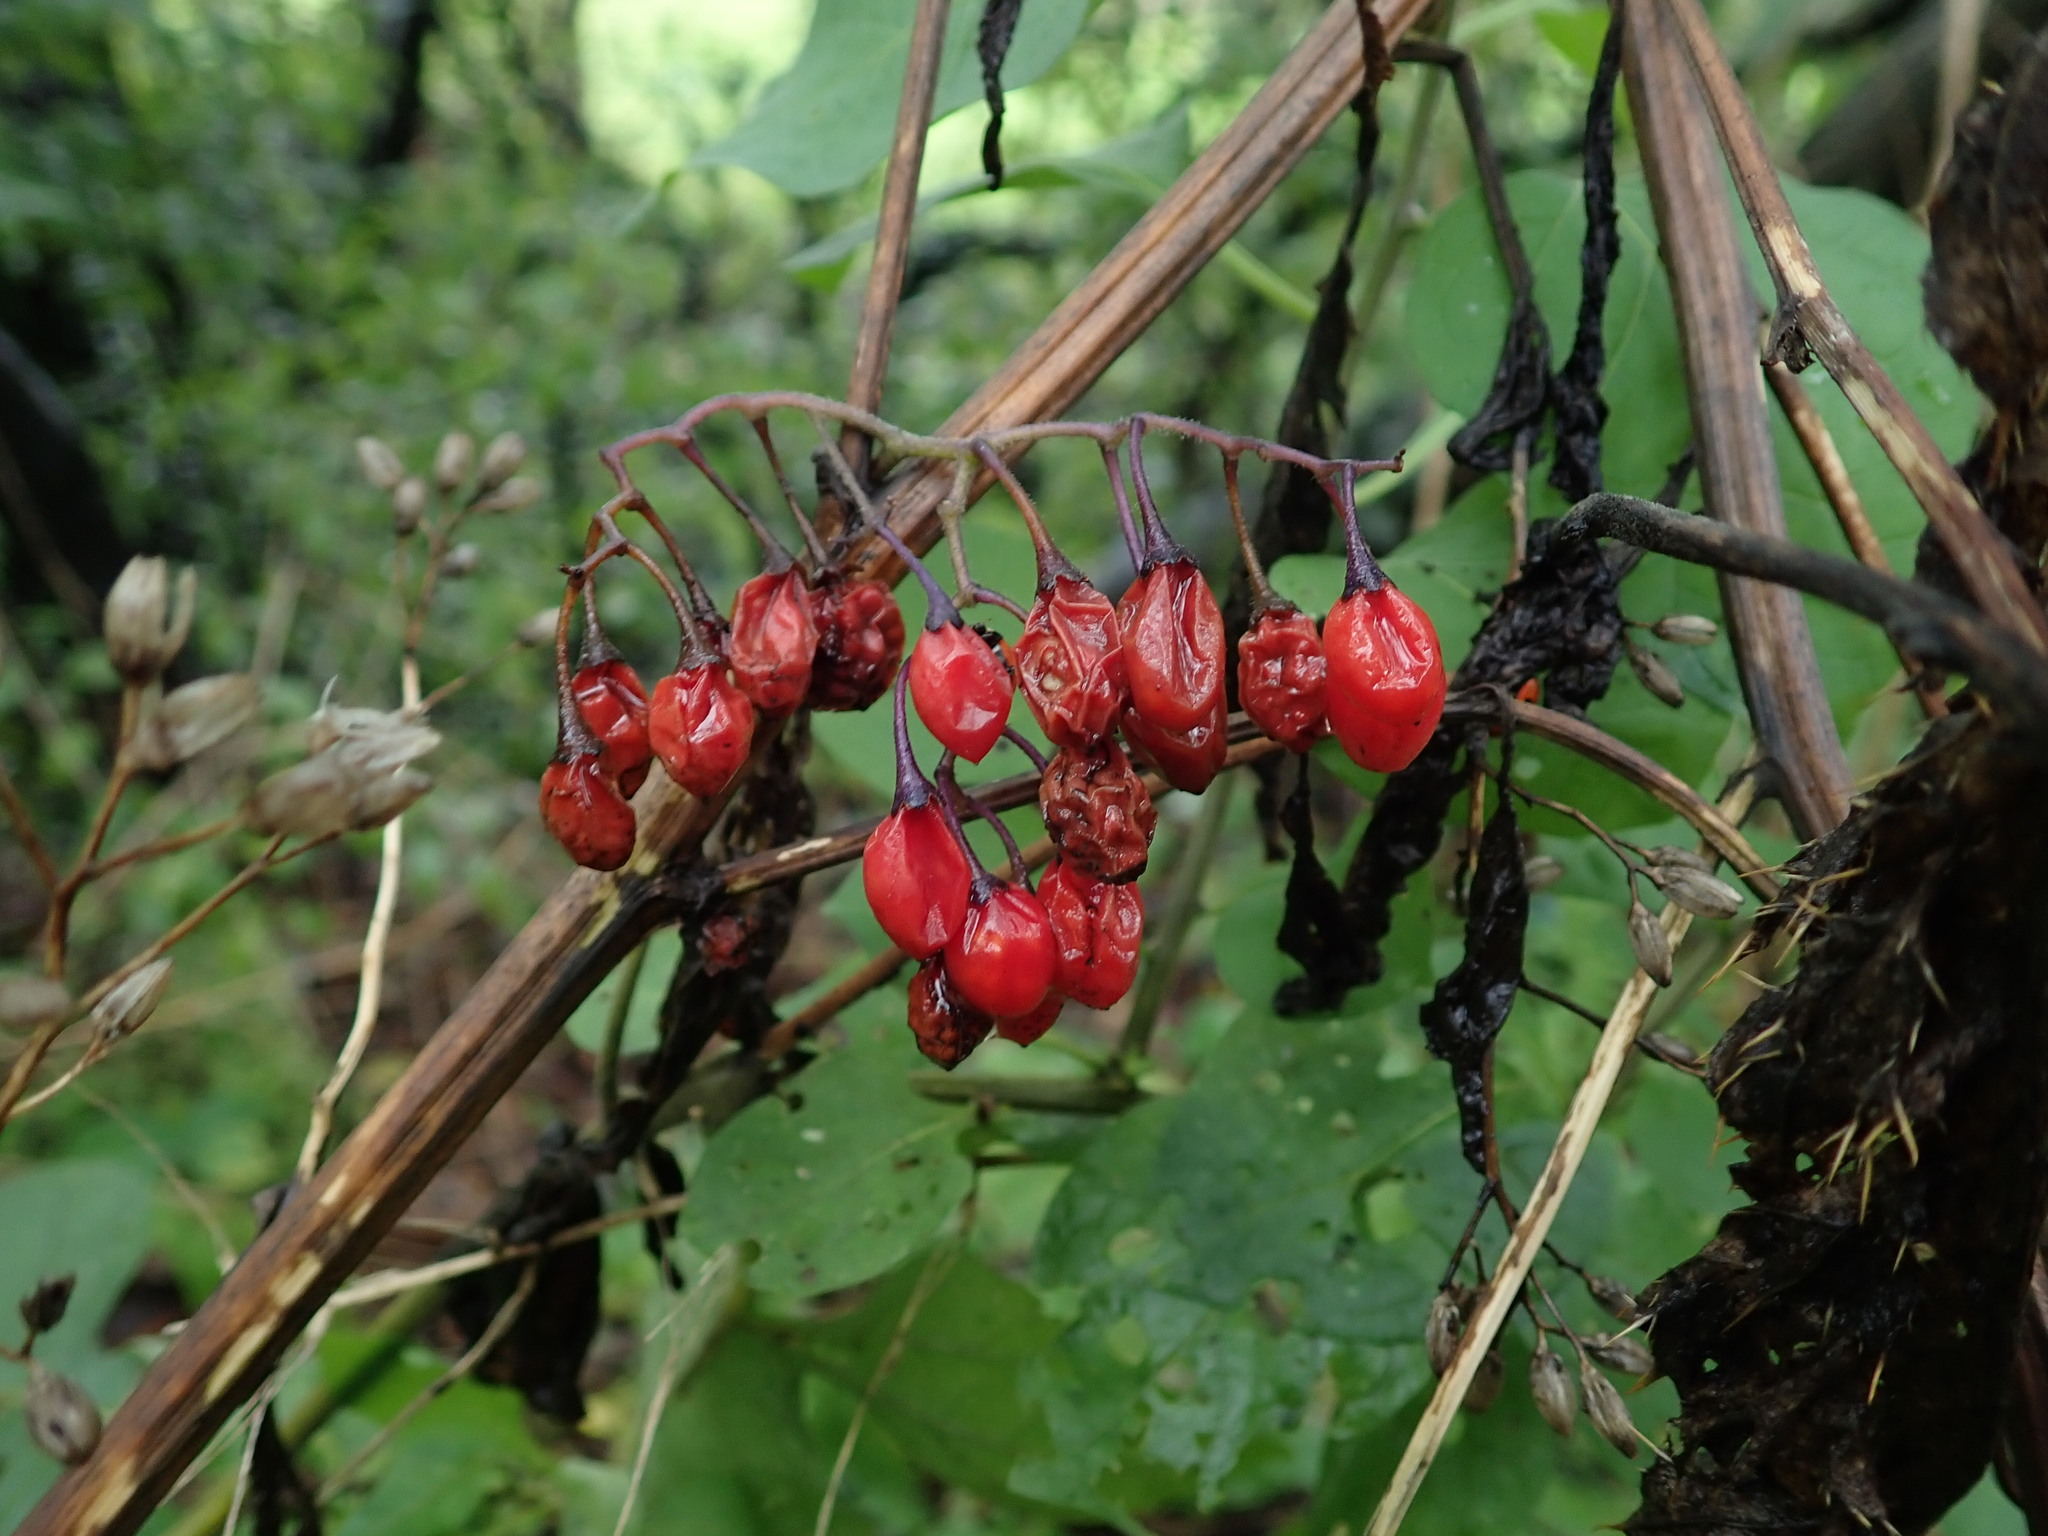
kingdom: Plantae
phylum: Tracheophyta
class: Magnoliopsida
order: Solanales
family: Solanaceae
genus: Solanum
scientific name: Solanum dulcamara
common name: Climbing nightshade
